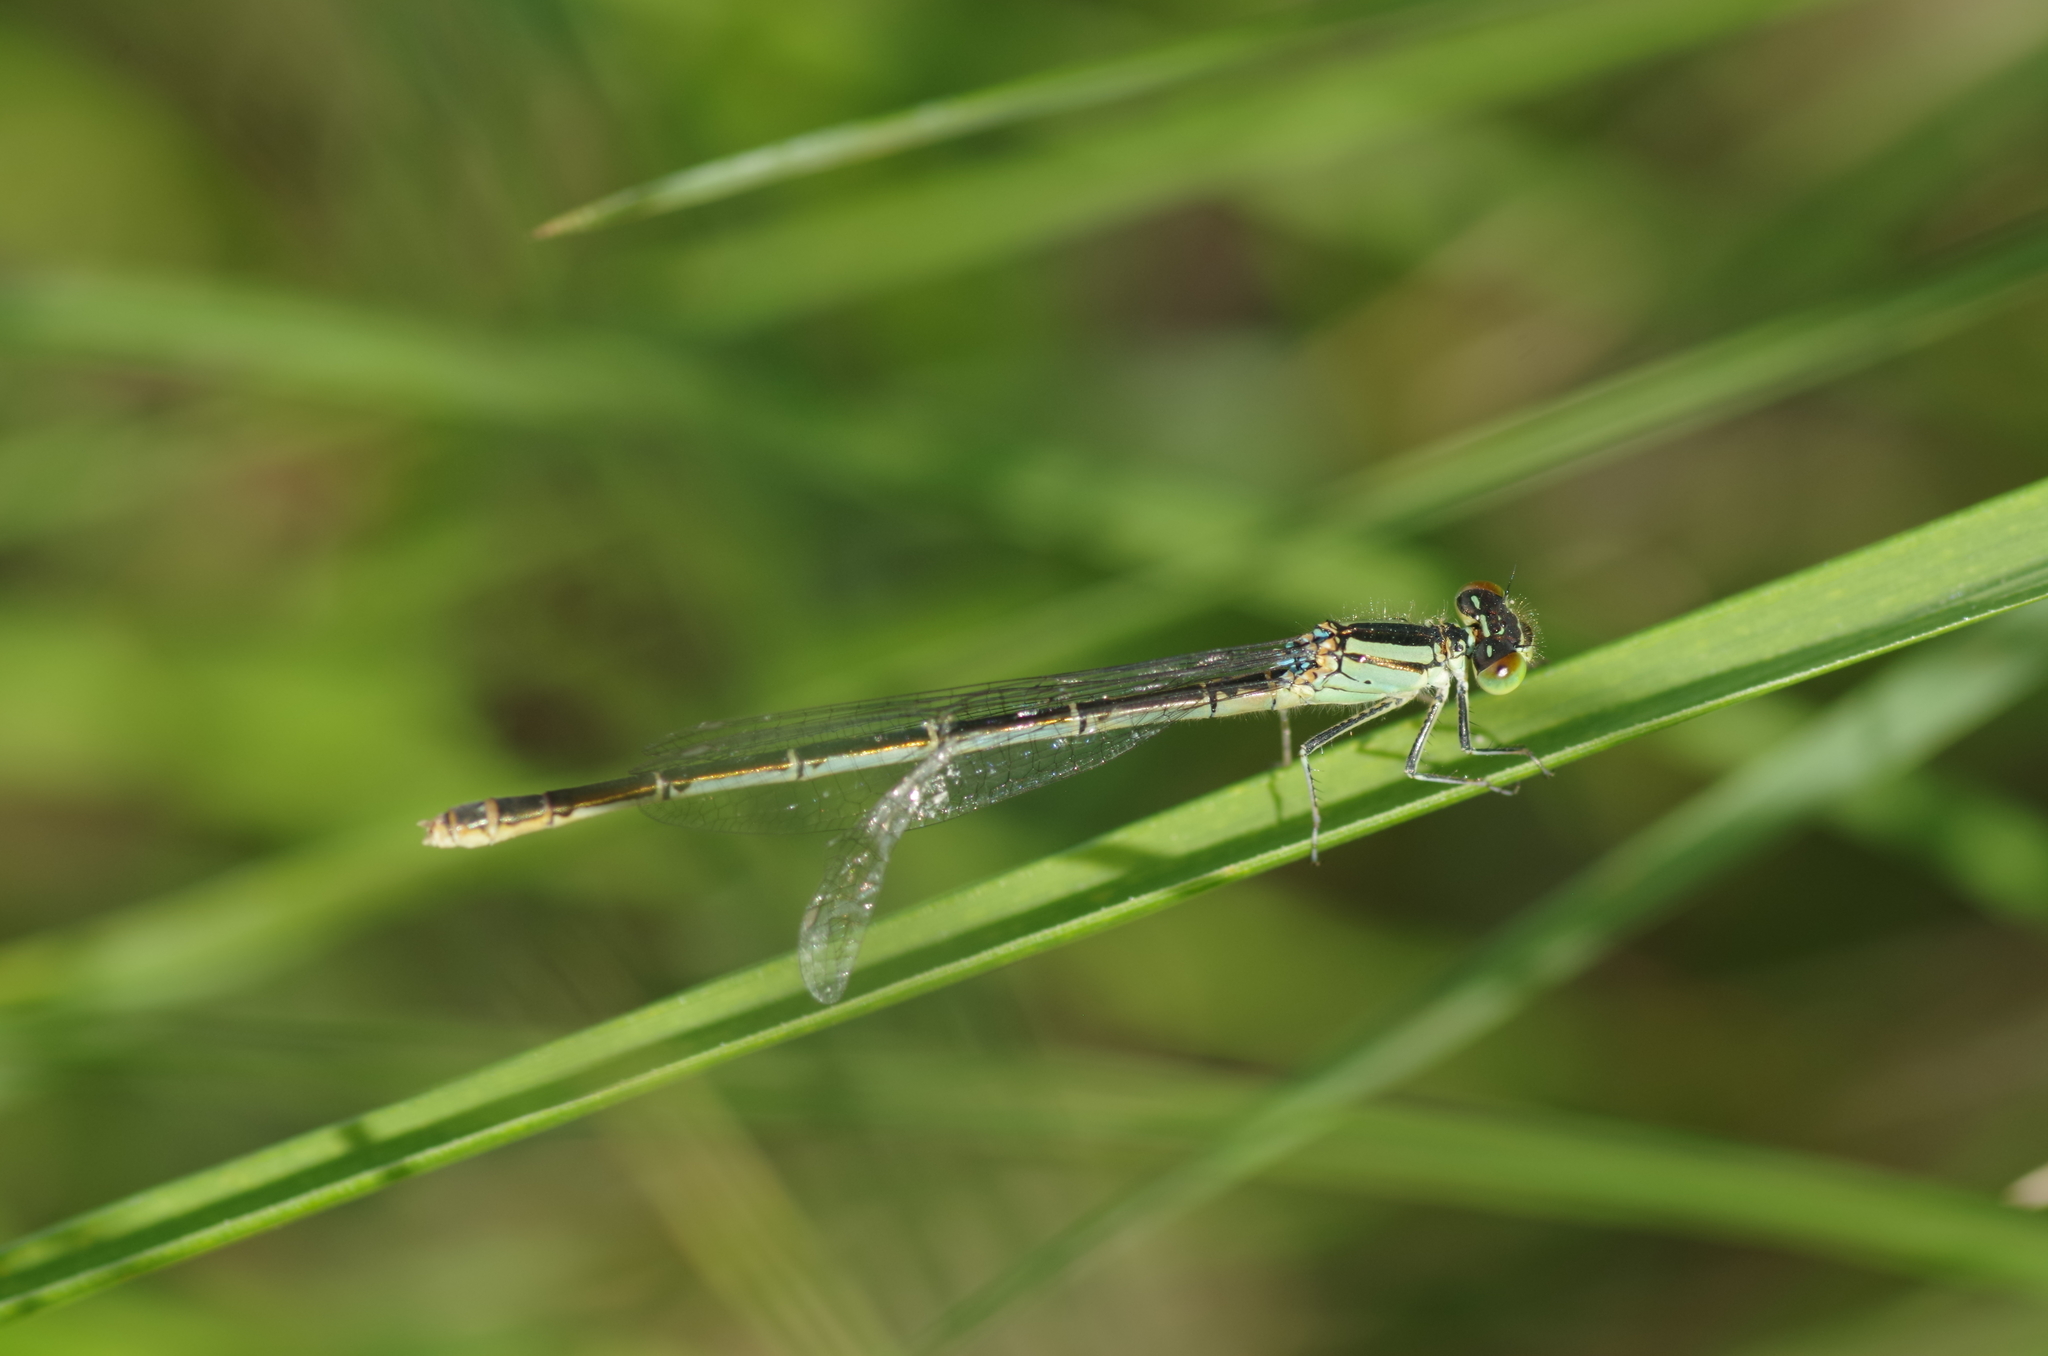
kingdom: Animalia
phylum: Arthropoda
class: Insecta
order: Odonata
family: Coenagrionidae
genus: Erythromma
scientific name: Erythromma lindenii
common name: Blue-eye
